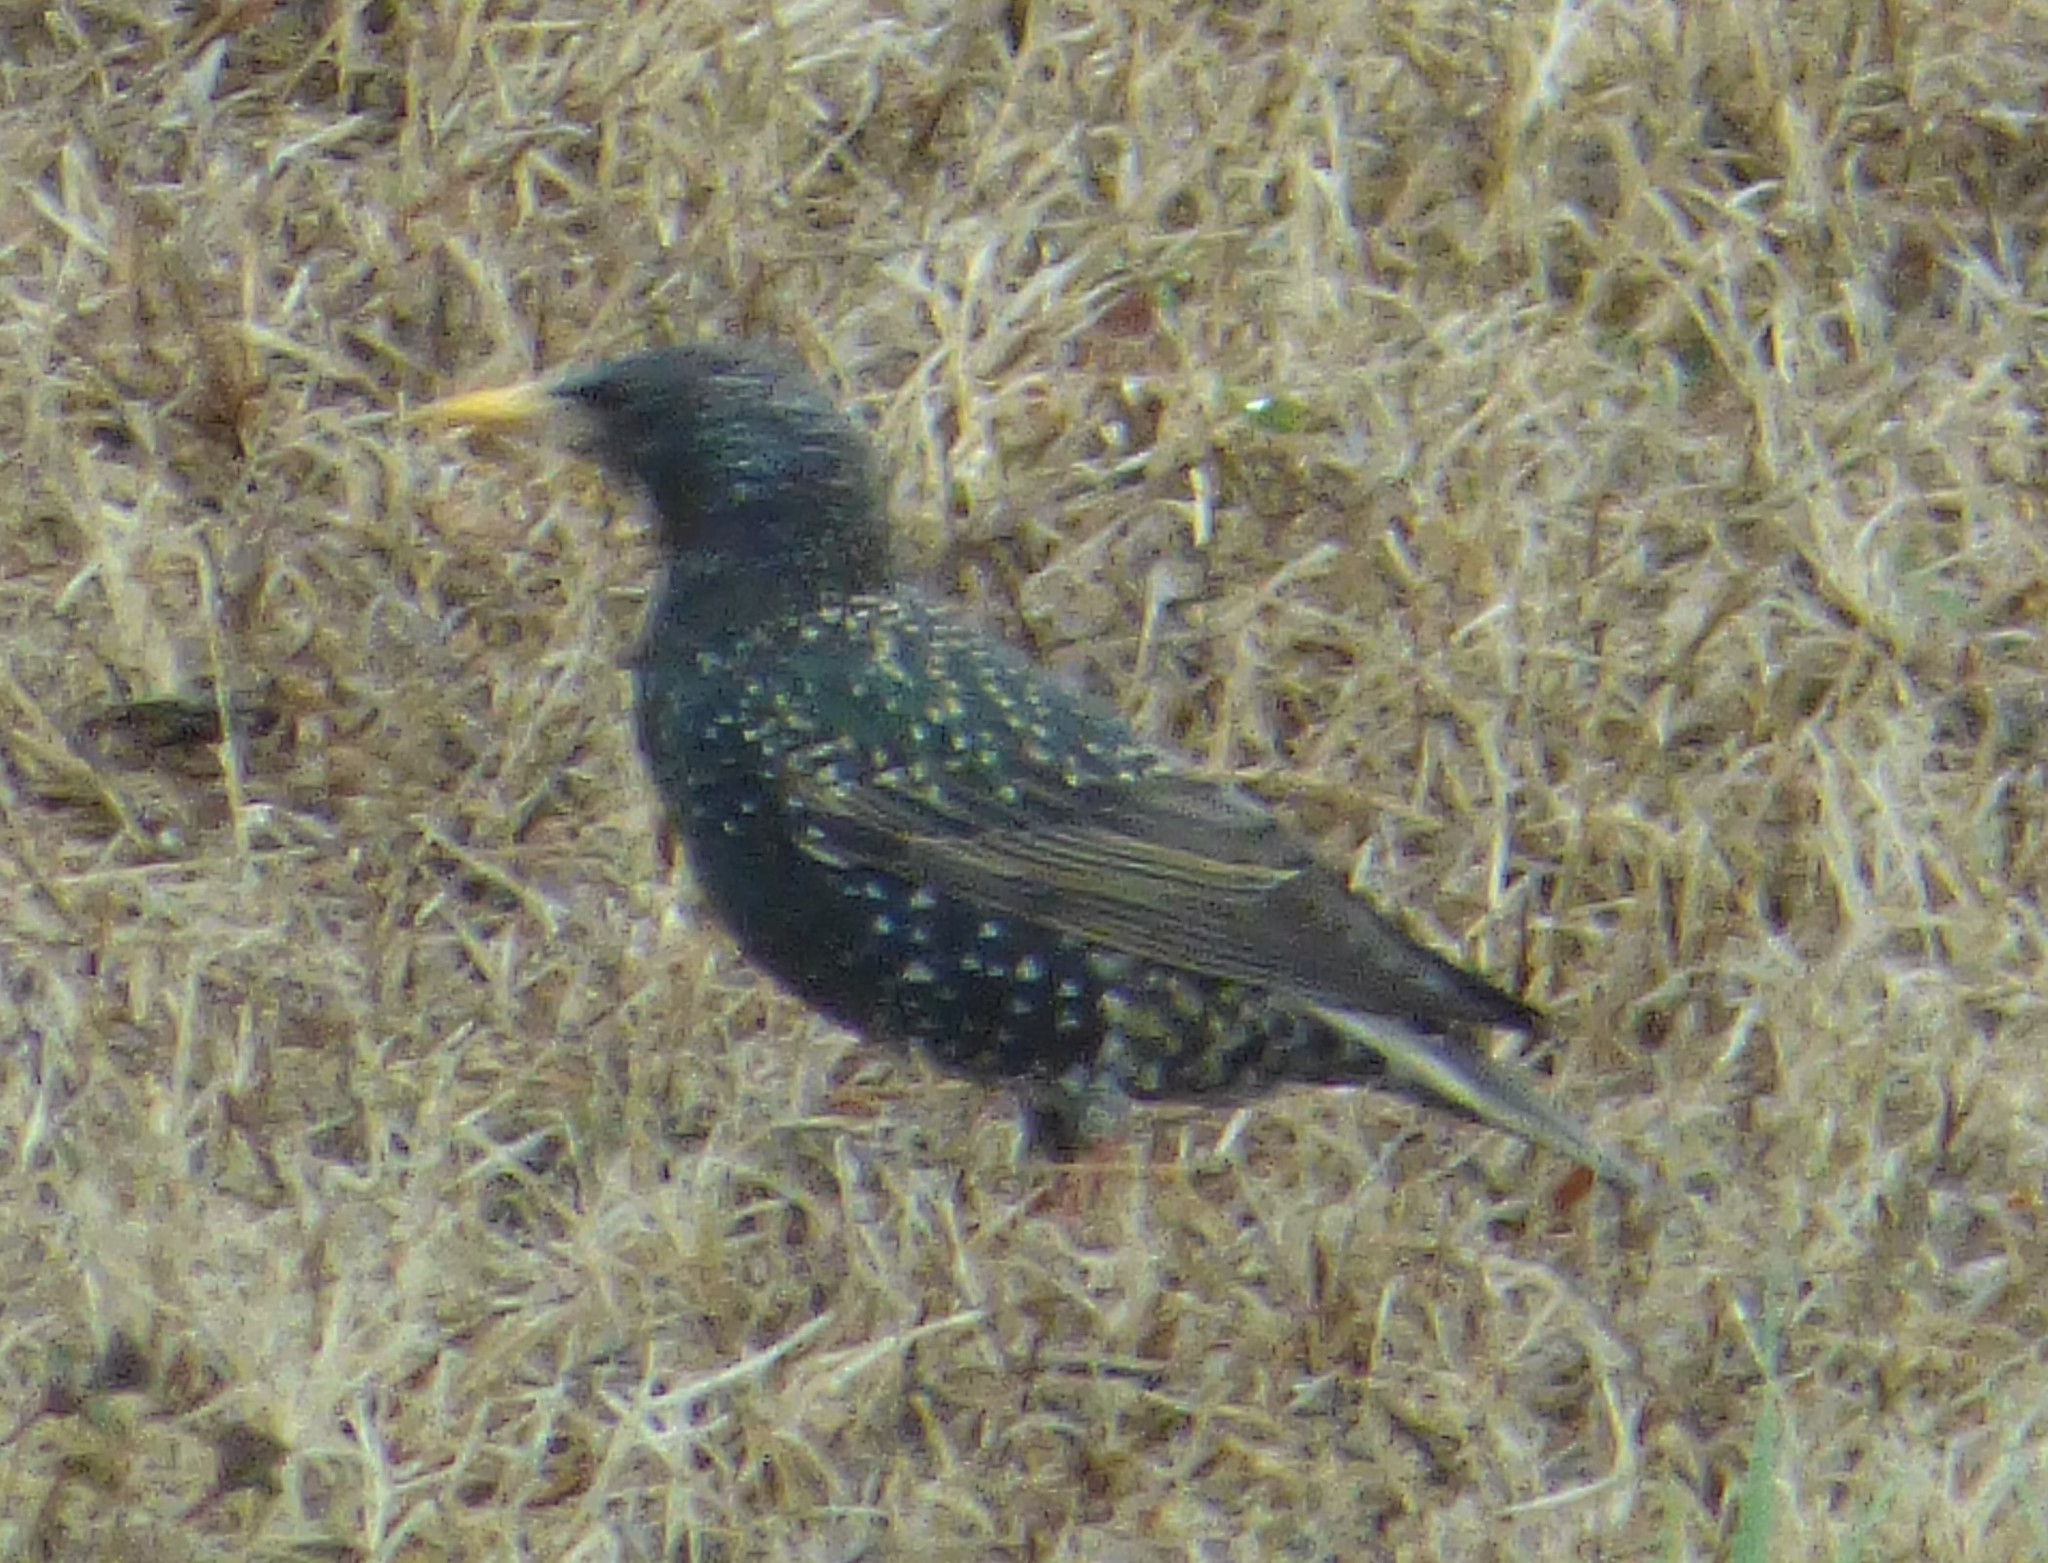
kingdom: Animalia
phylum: Chordata
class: Aves
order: Passeriformes
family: Sturnidae
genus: Sturnus
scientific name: Sturnus vulgaris
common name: Common starling
